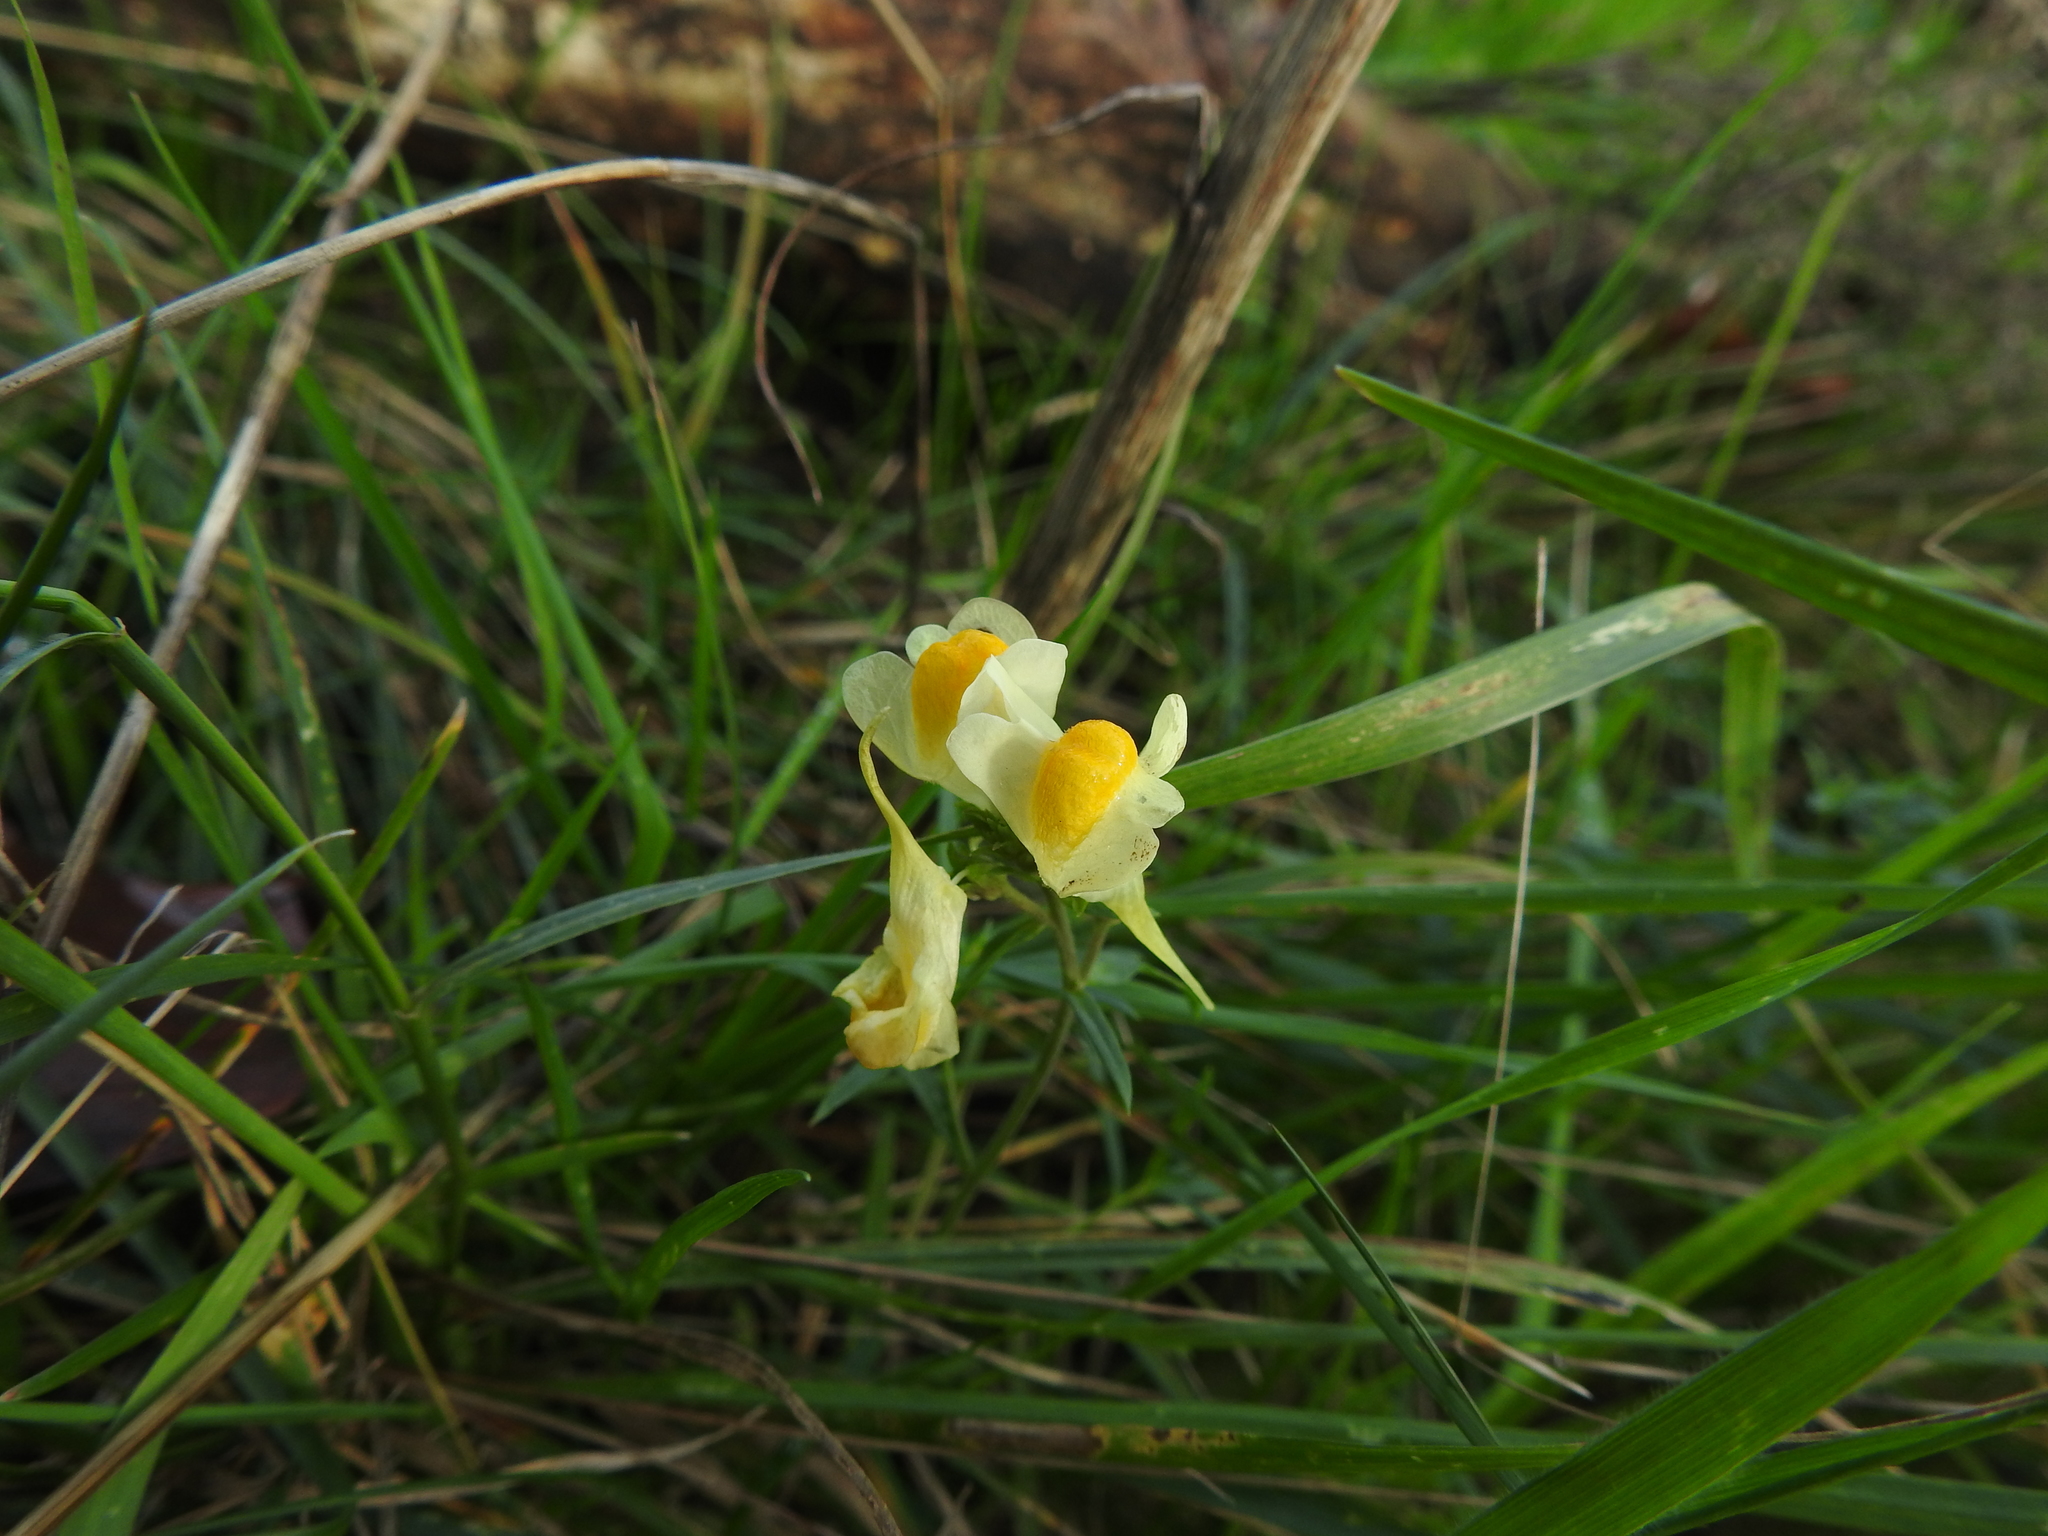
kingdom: Plantae
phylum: Tracheophyta
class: Magnoliopsida
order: Lamiales
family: Plantaginaceae
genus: Linaria
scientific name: Linaria vulgaris
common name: Butter and eggs
